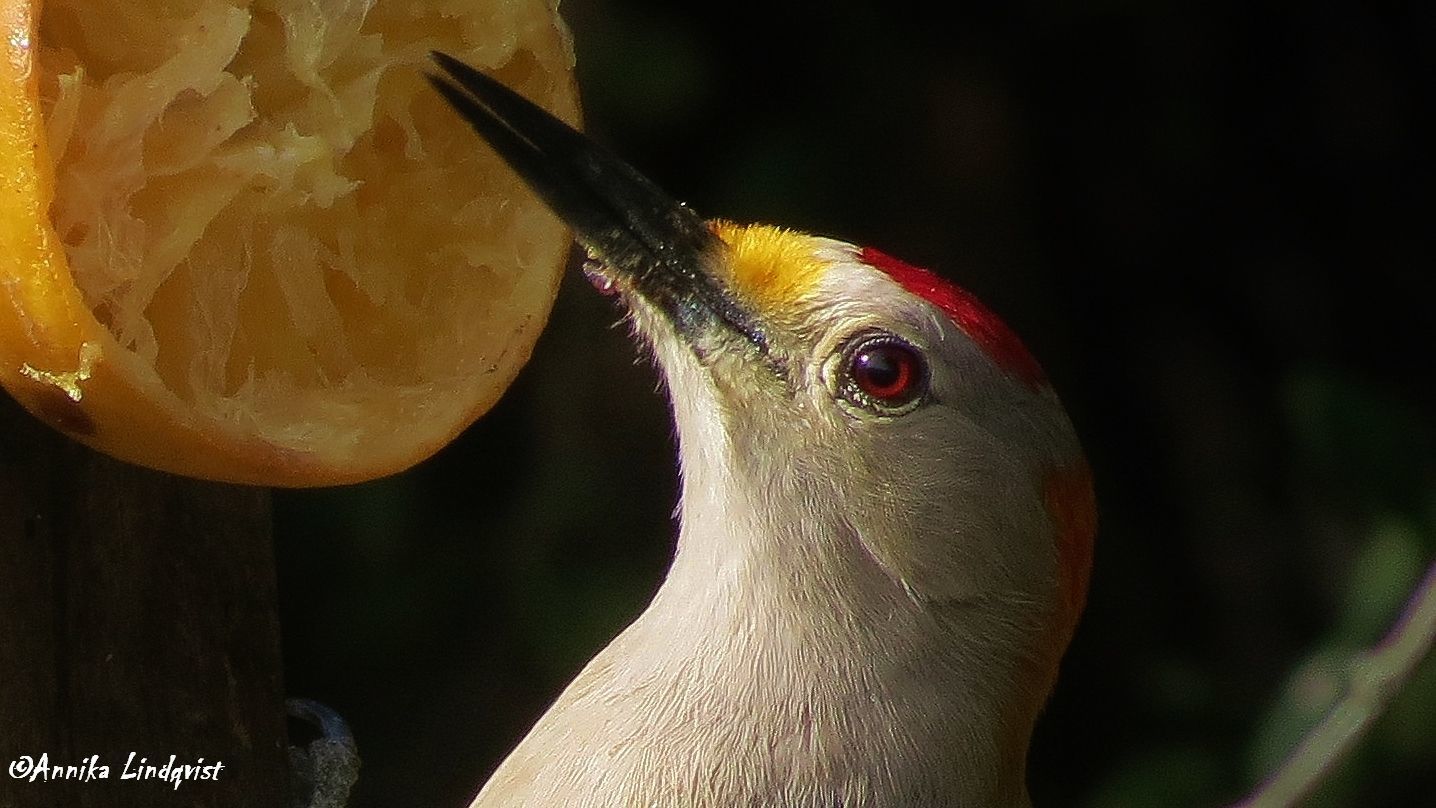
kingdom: Animalia
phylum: Chordata
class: Aves
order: Piciformes
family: Picidae
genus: Melanerpes
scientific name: Melanerpes aurifrons
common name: Golden-fronted woodpecker
